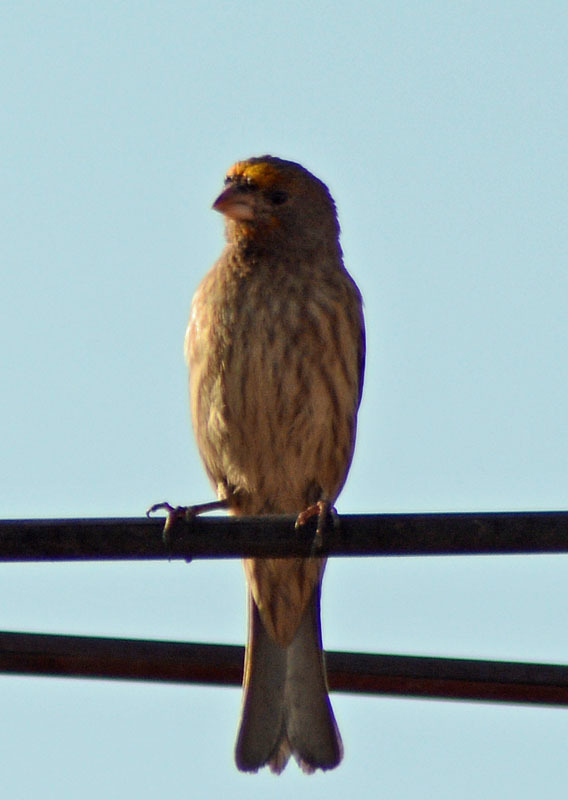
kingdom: Animalia
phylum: Chordata
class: Aves
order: Passeriformes
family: Fringillidae
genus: Haemorhous
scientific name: Haemorhous mexicanus
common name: House finch
